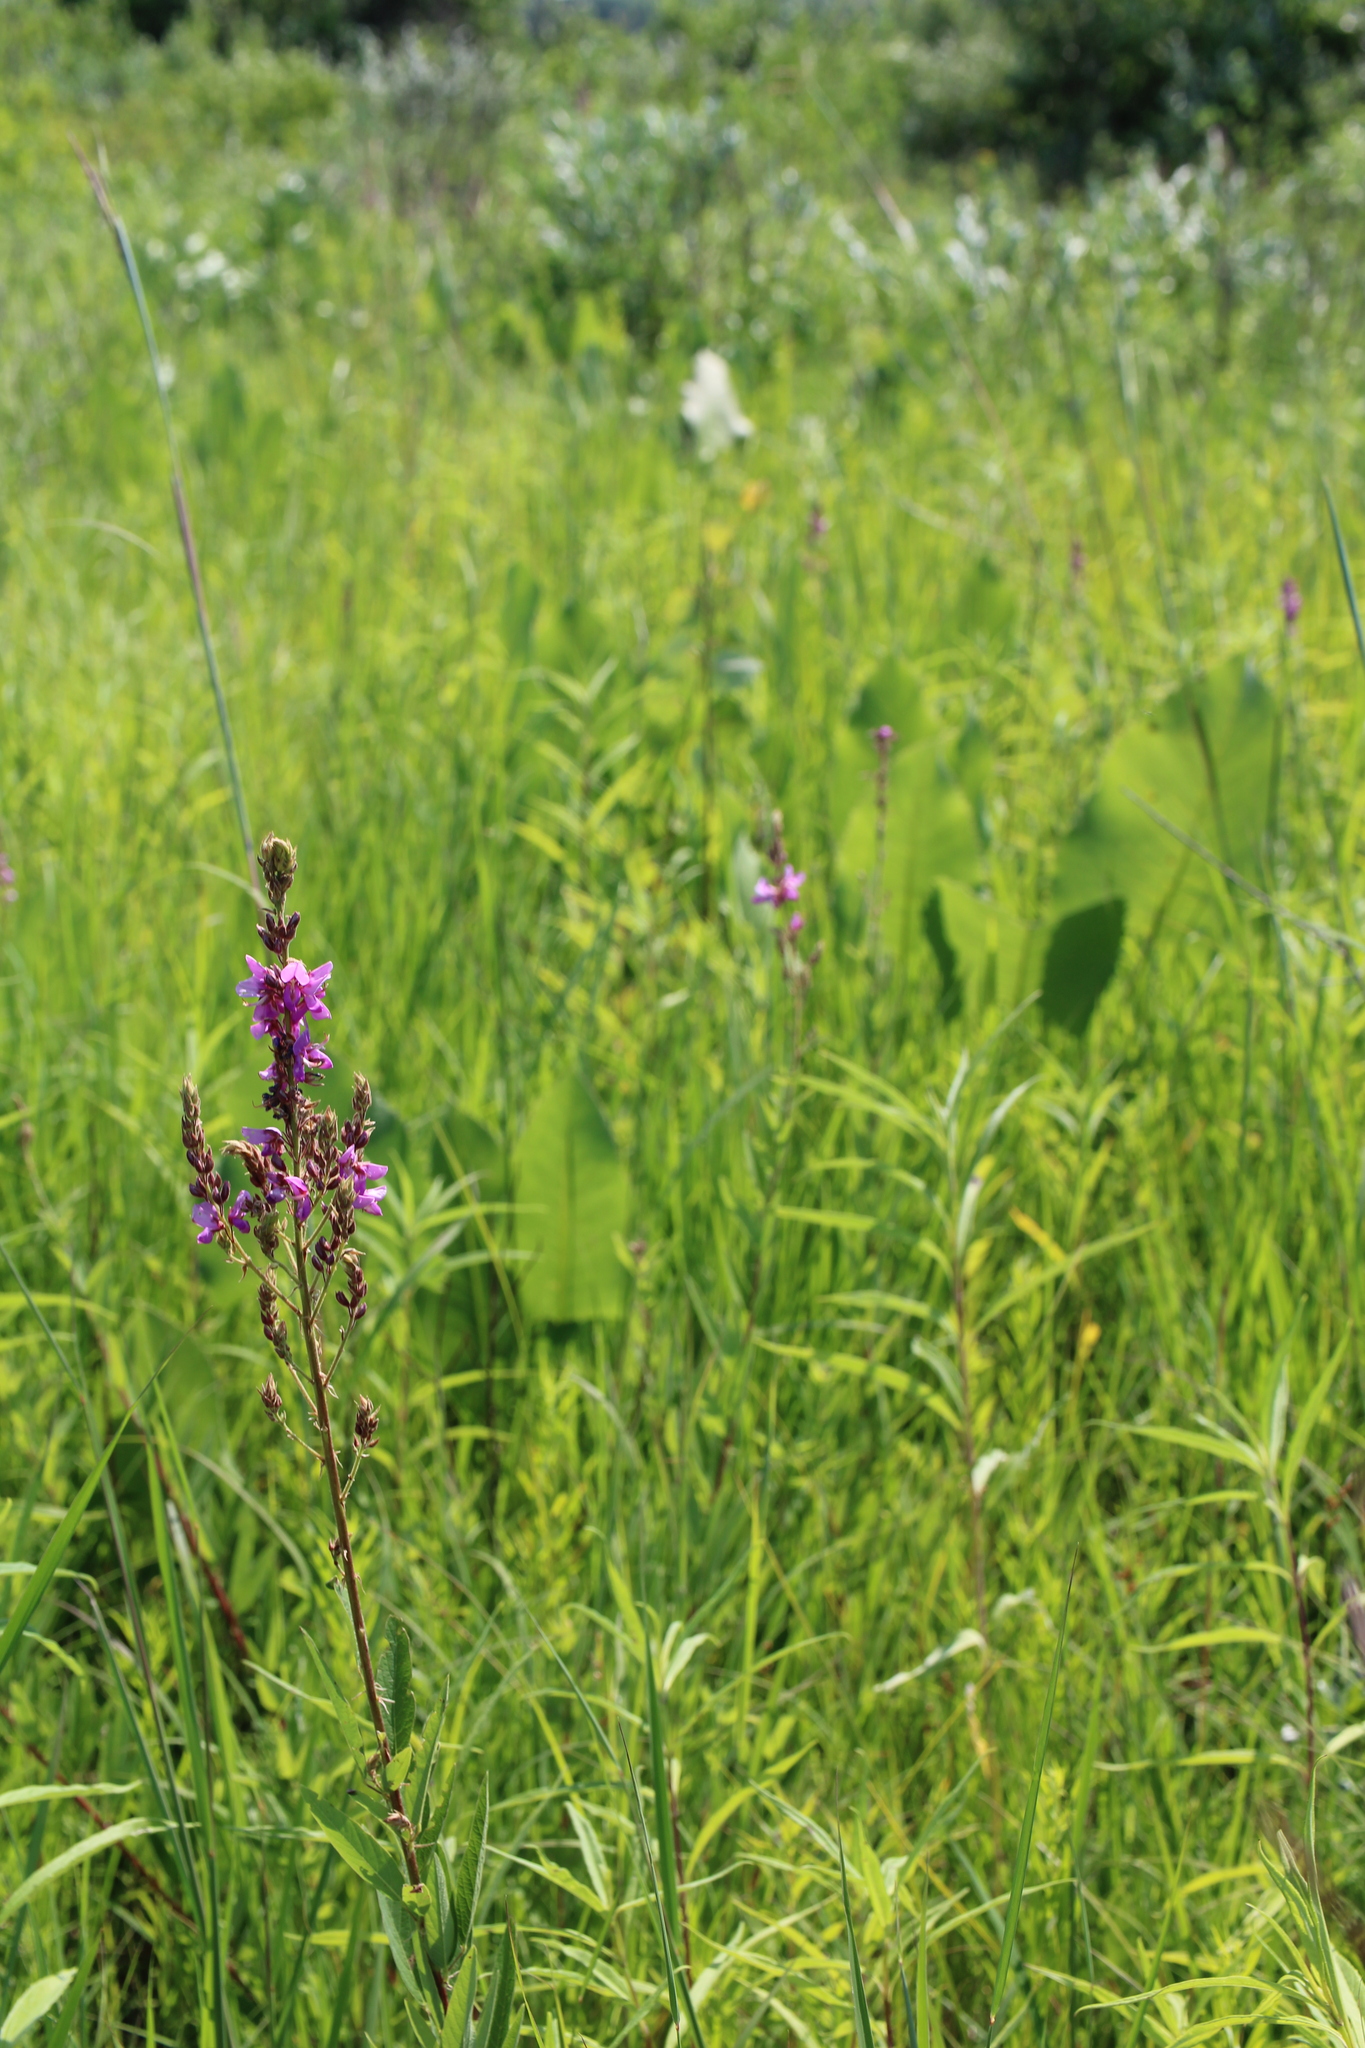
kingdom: Plantae
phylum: Tracheophyta
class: Magnoliopsida
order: Fabales
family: Fabaceae
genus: Desmodium
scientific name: Desmodium canadense
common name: Canada tick-trefoil
